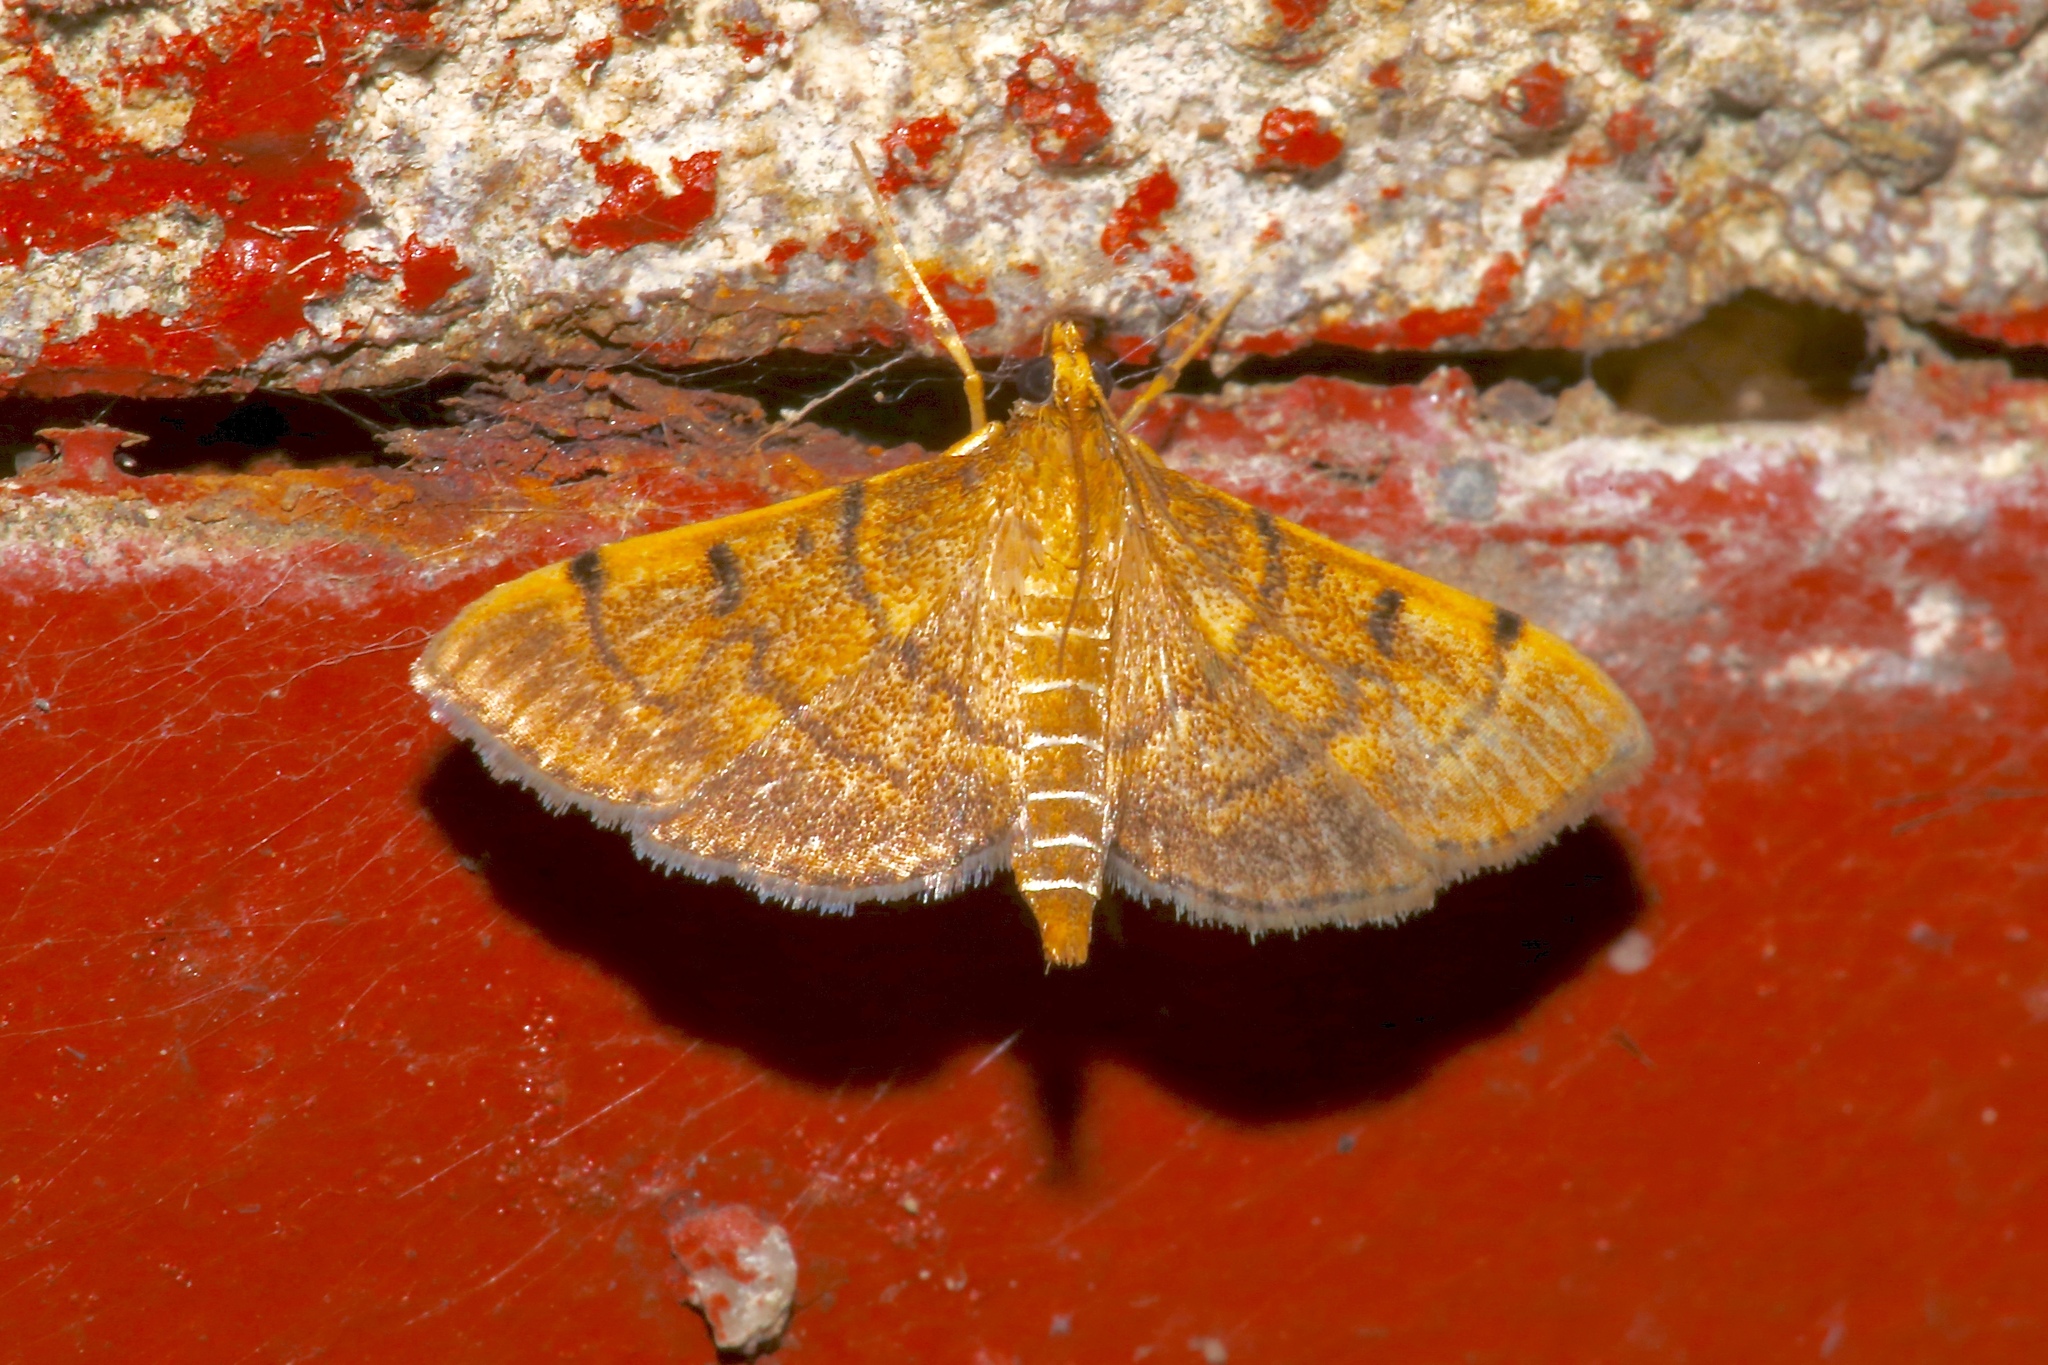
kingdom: Animalia
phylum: Arthropoda
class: Insecta
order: Lepidoptera
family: Crambidae
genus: Omiodes
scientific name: Omiodes indicata
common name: Bean-leaf webworm moth
